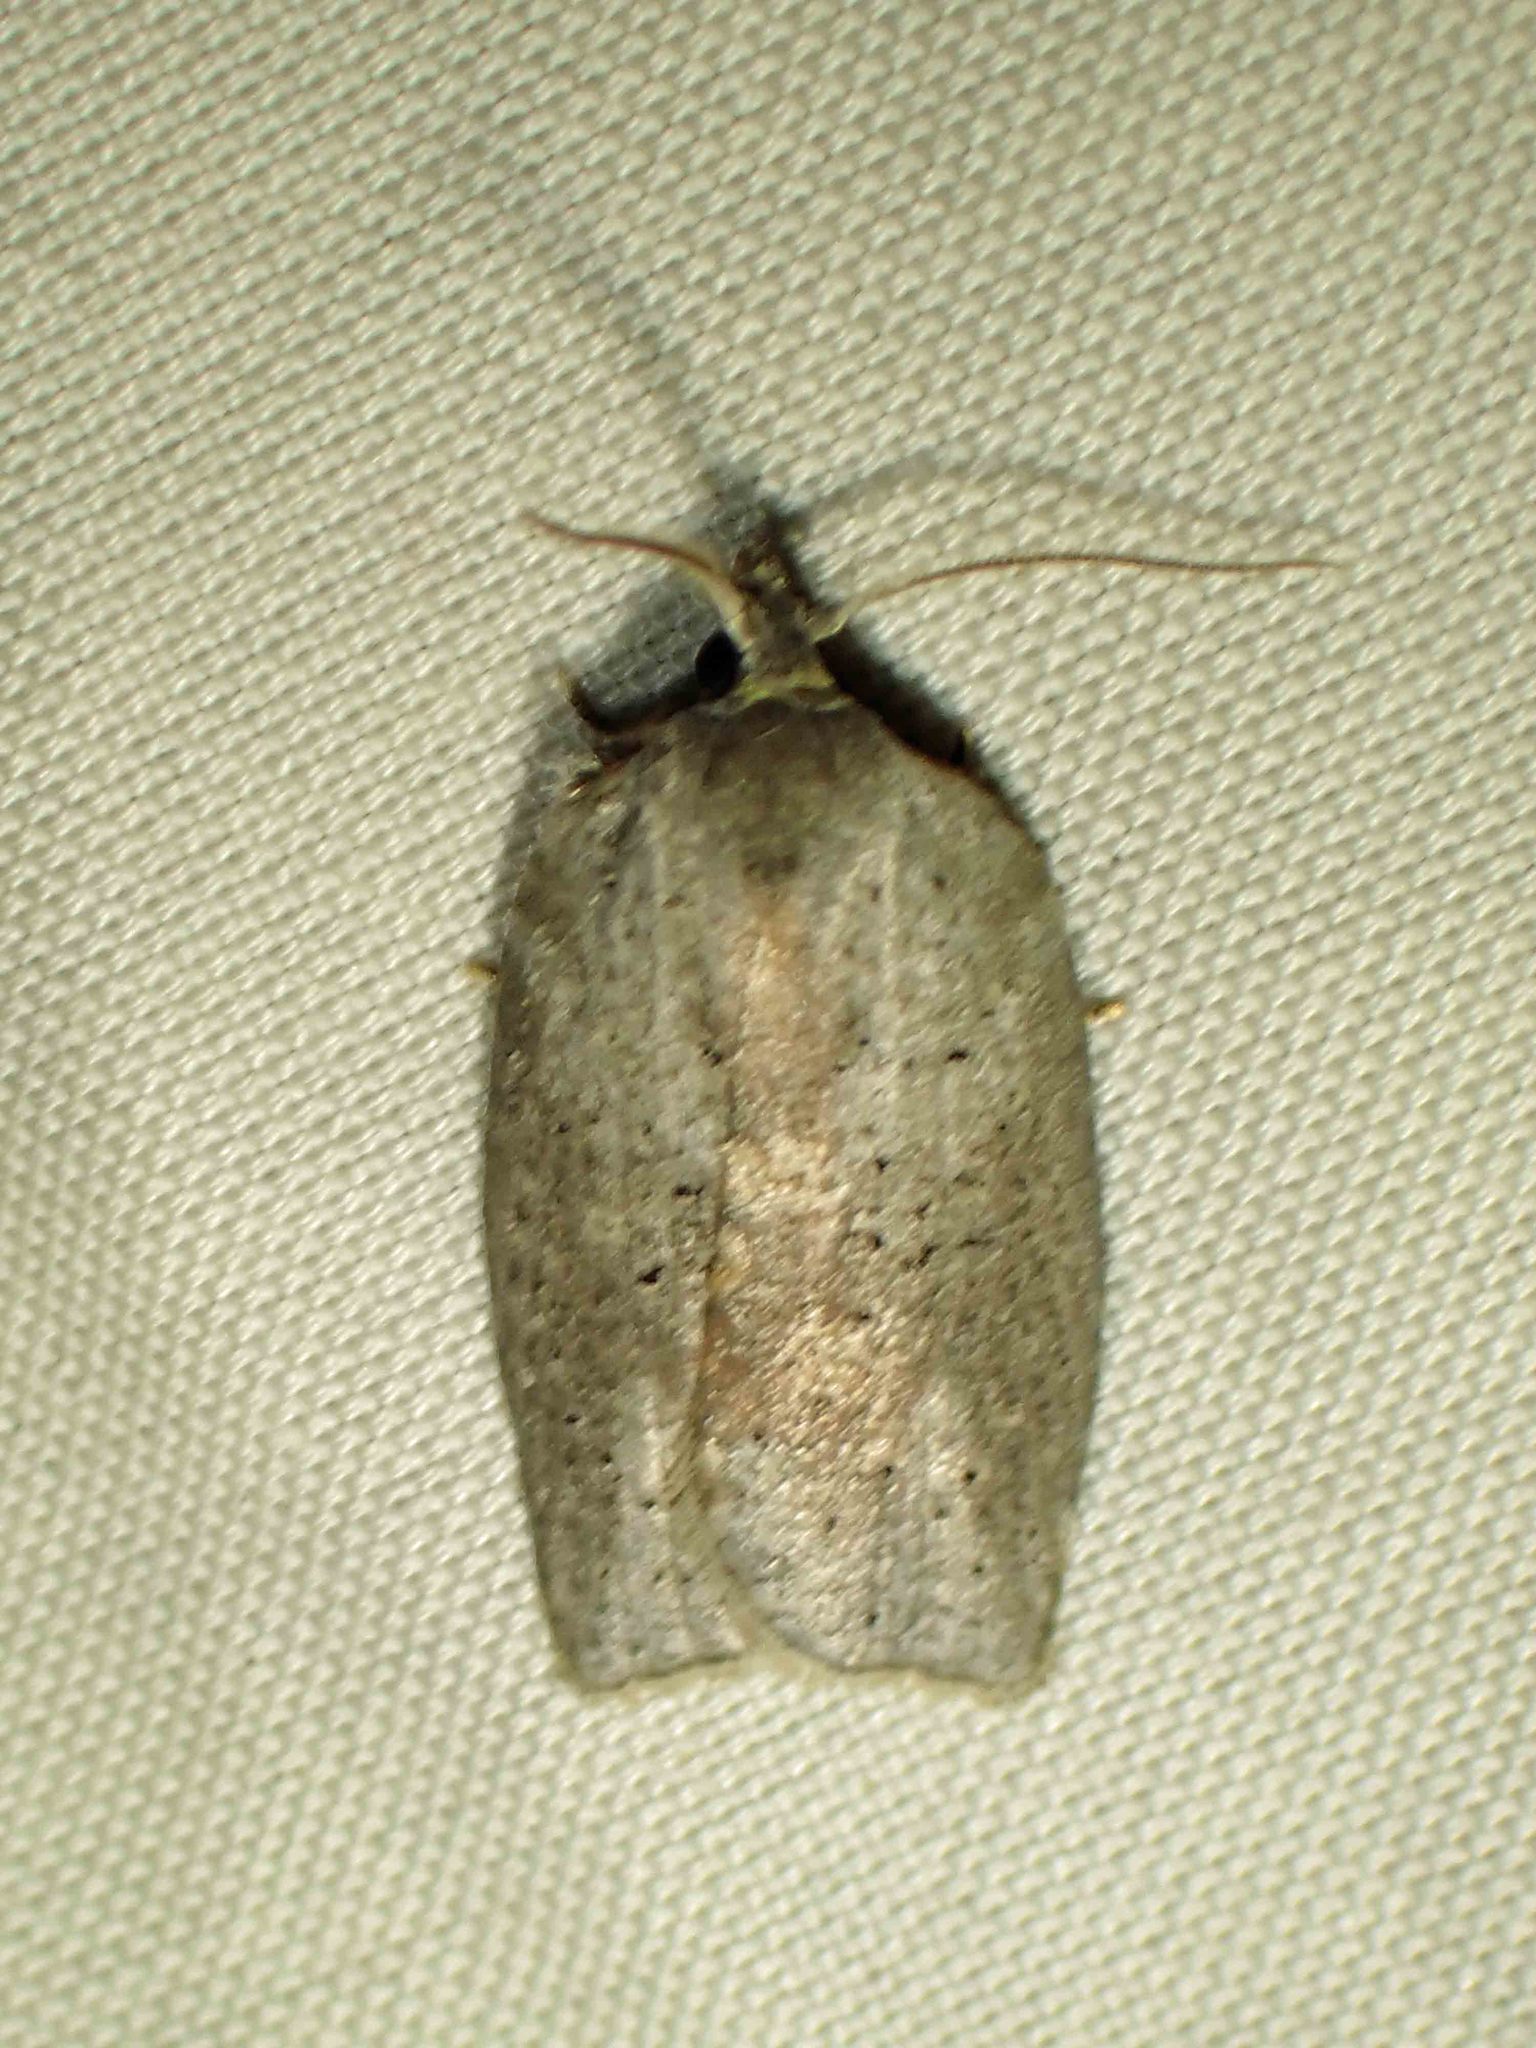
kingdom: Animalia
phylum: Arthropoda
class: Insecta
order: Lepidoptera
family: Tortricidae
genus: Amorbia
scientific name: Amorbia humerosana
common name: White-lined leafroller moth
